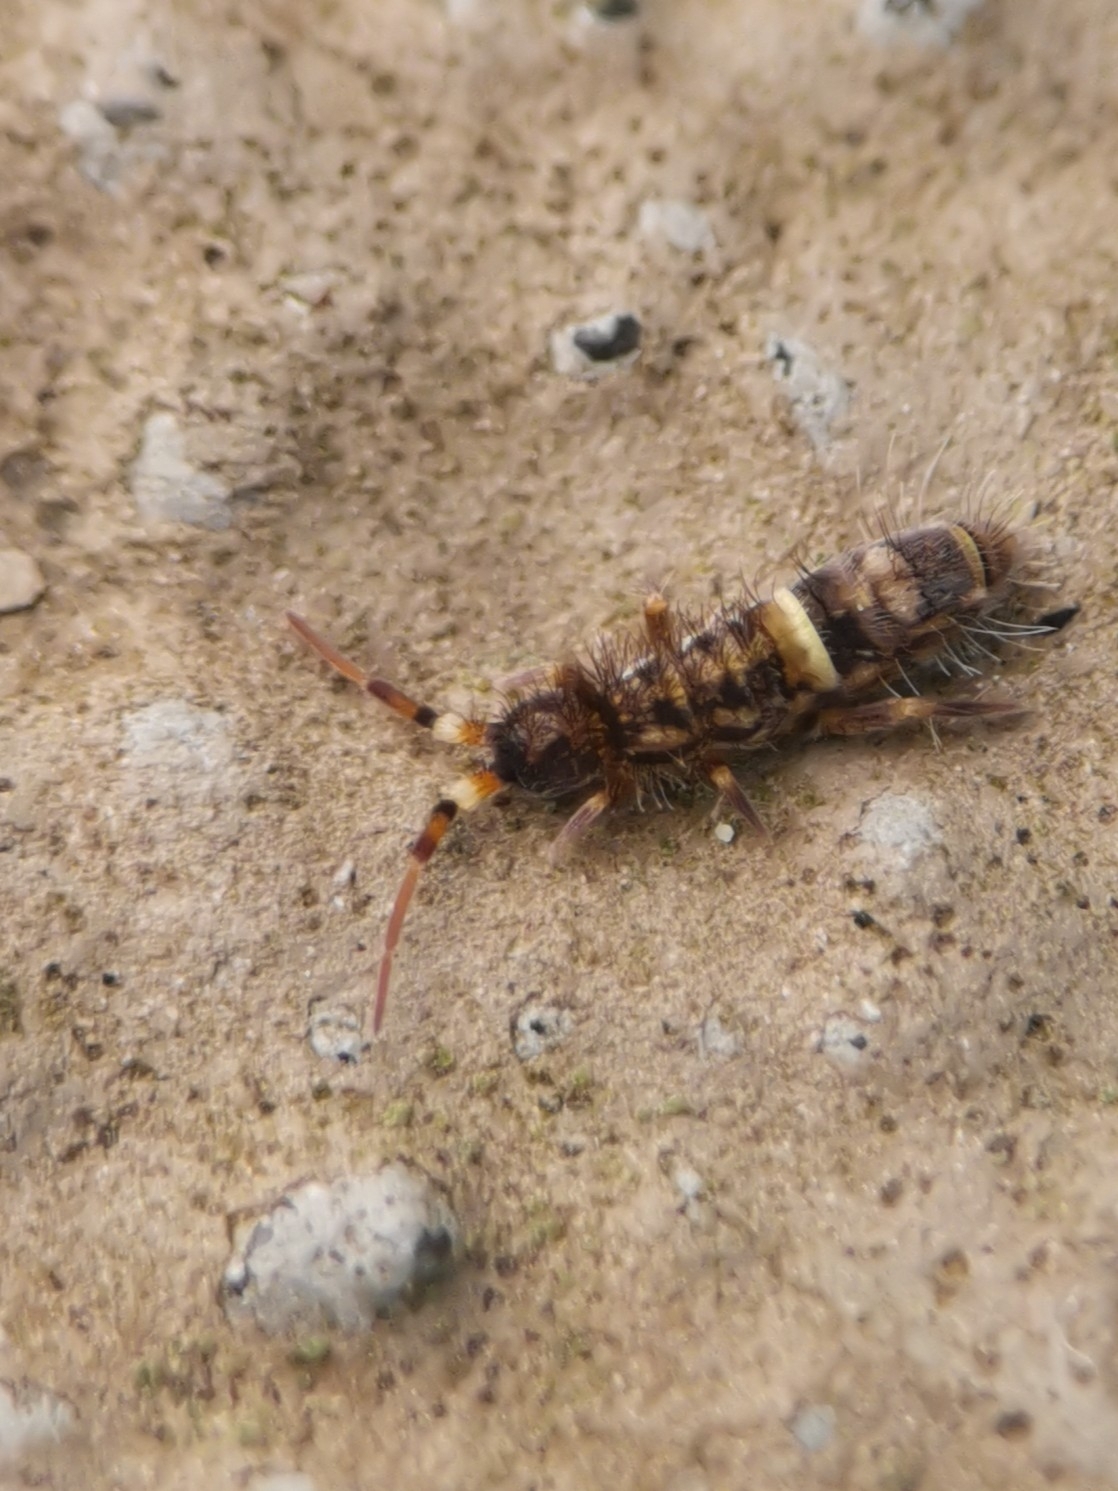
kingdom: Animalia
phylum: Arthropoda
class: Collembola
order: Entomobryomorpha
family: Orchesellidae
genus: Orchesella
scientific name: Orchesella cincta
